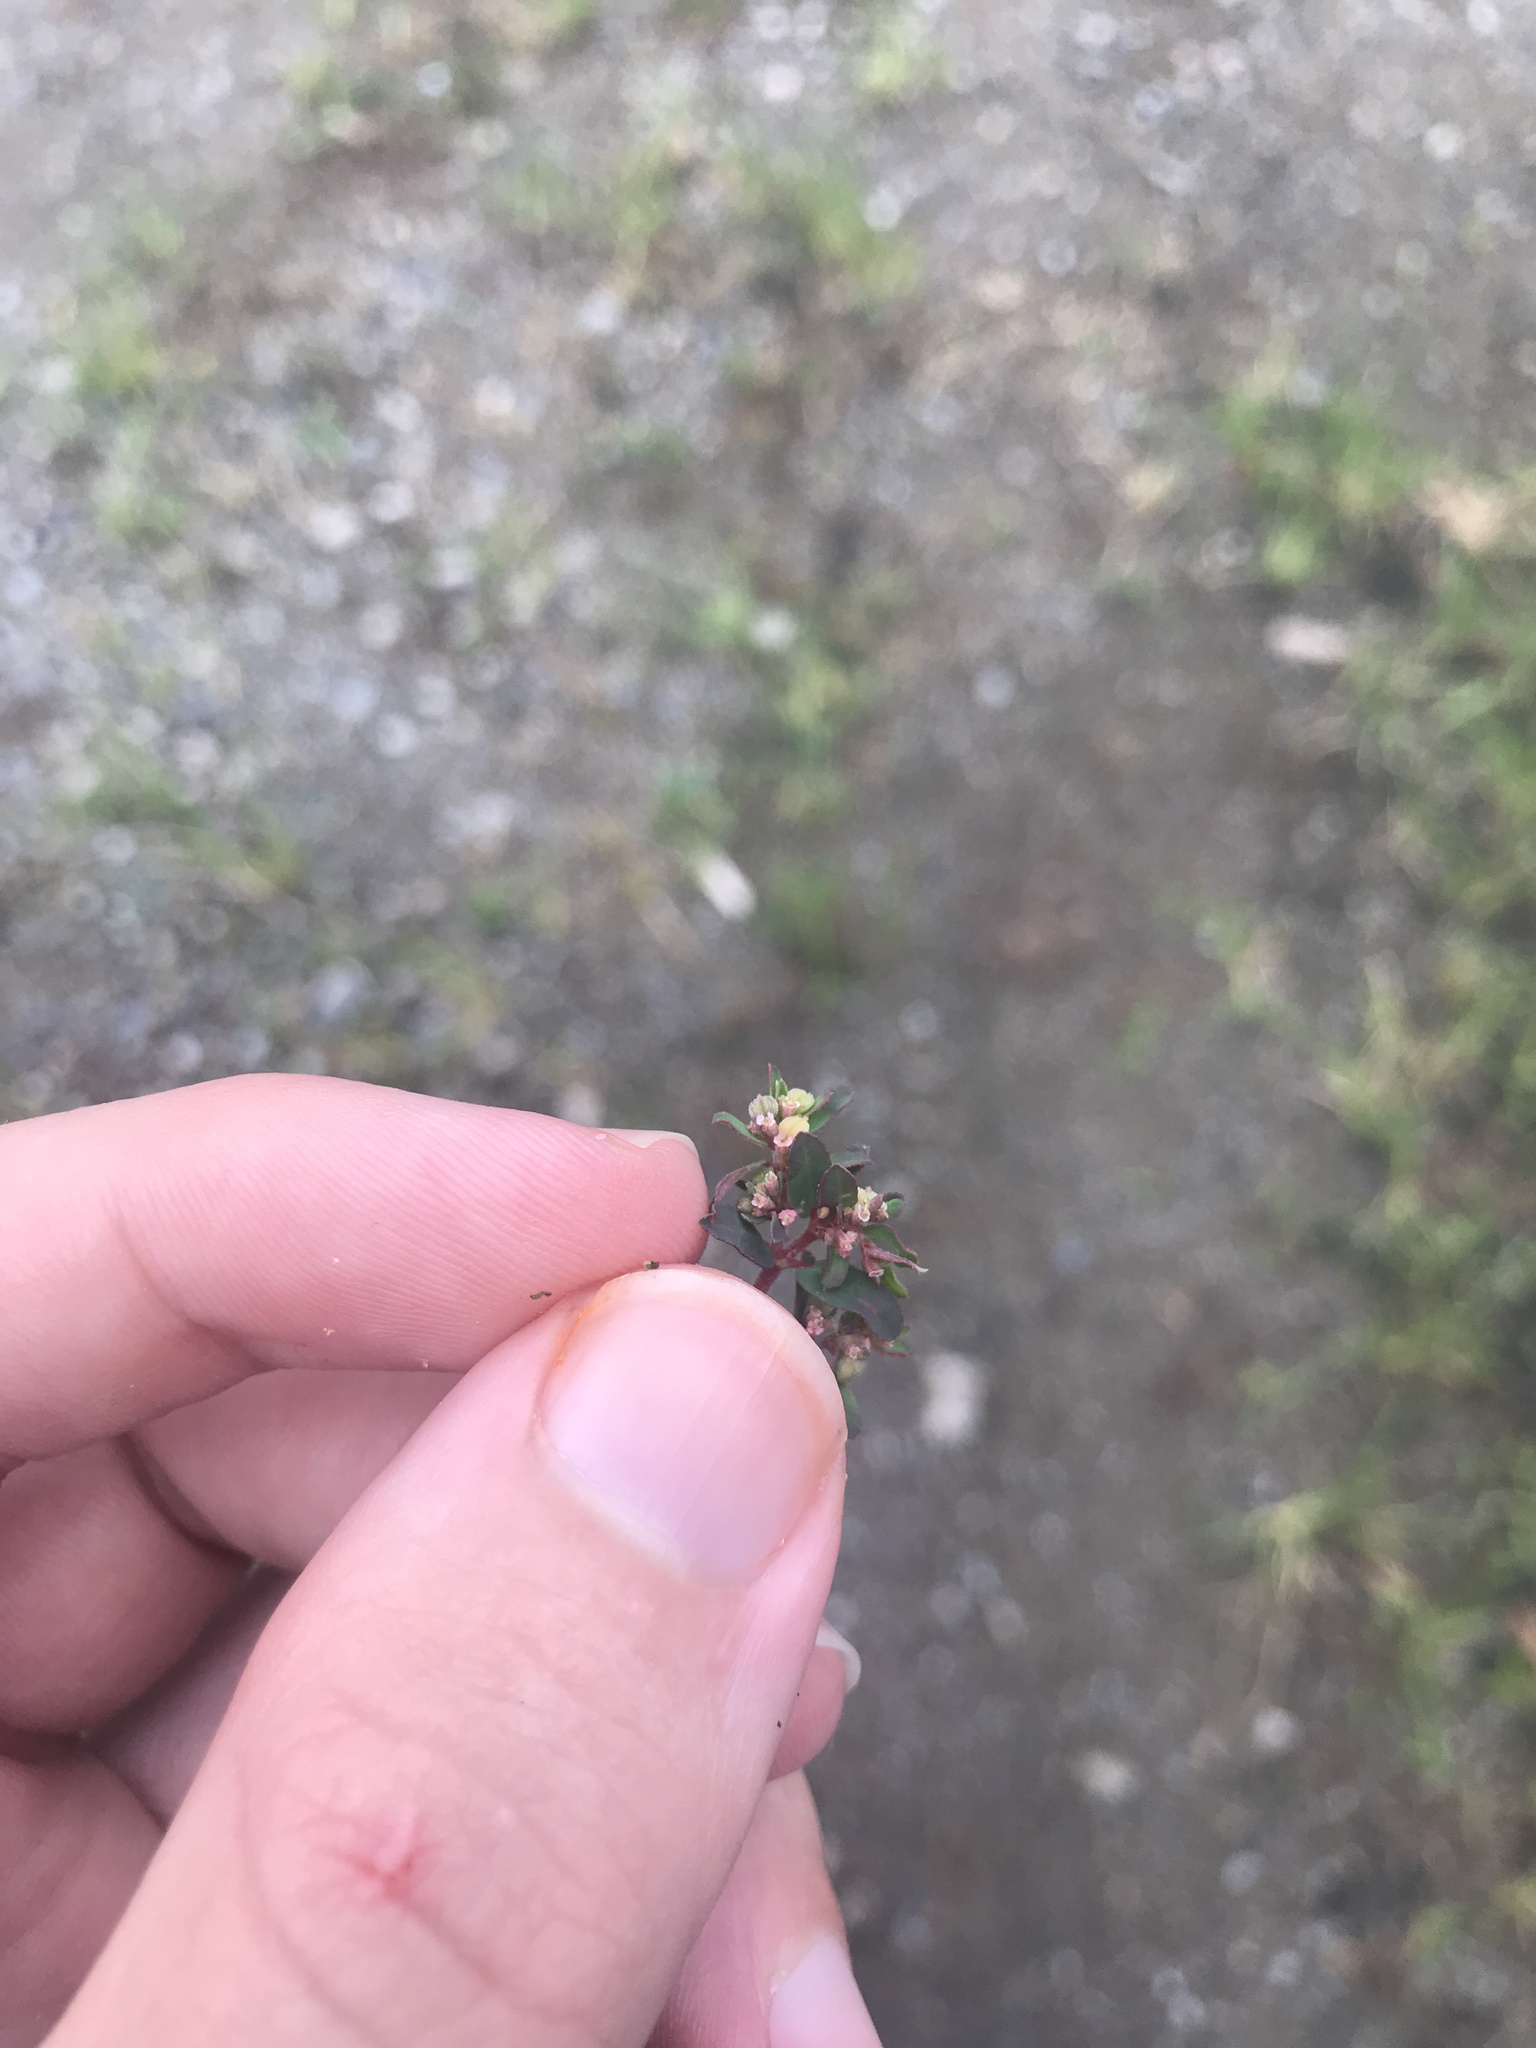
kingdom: Plantae
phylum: Tracheophyta
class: Magnoliopsida
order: Malpighiales
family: Euphorbiaceae
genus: Euphorbia
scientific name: Euphorbia maculata
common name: Spotted spurge
